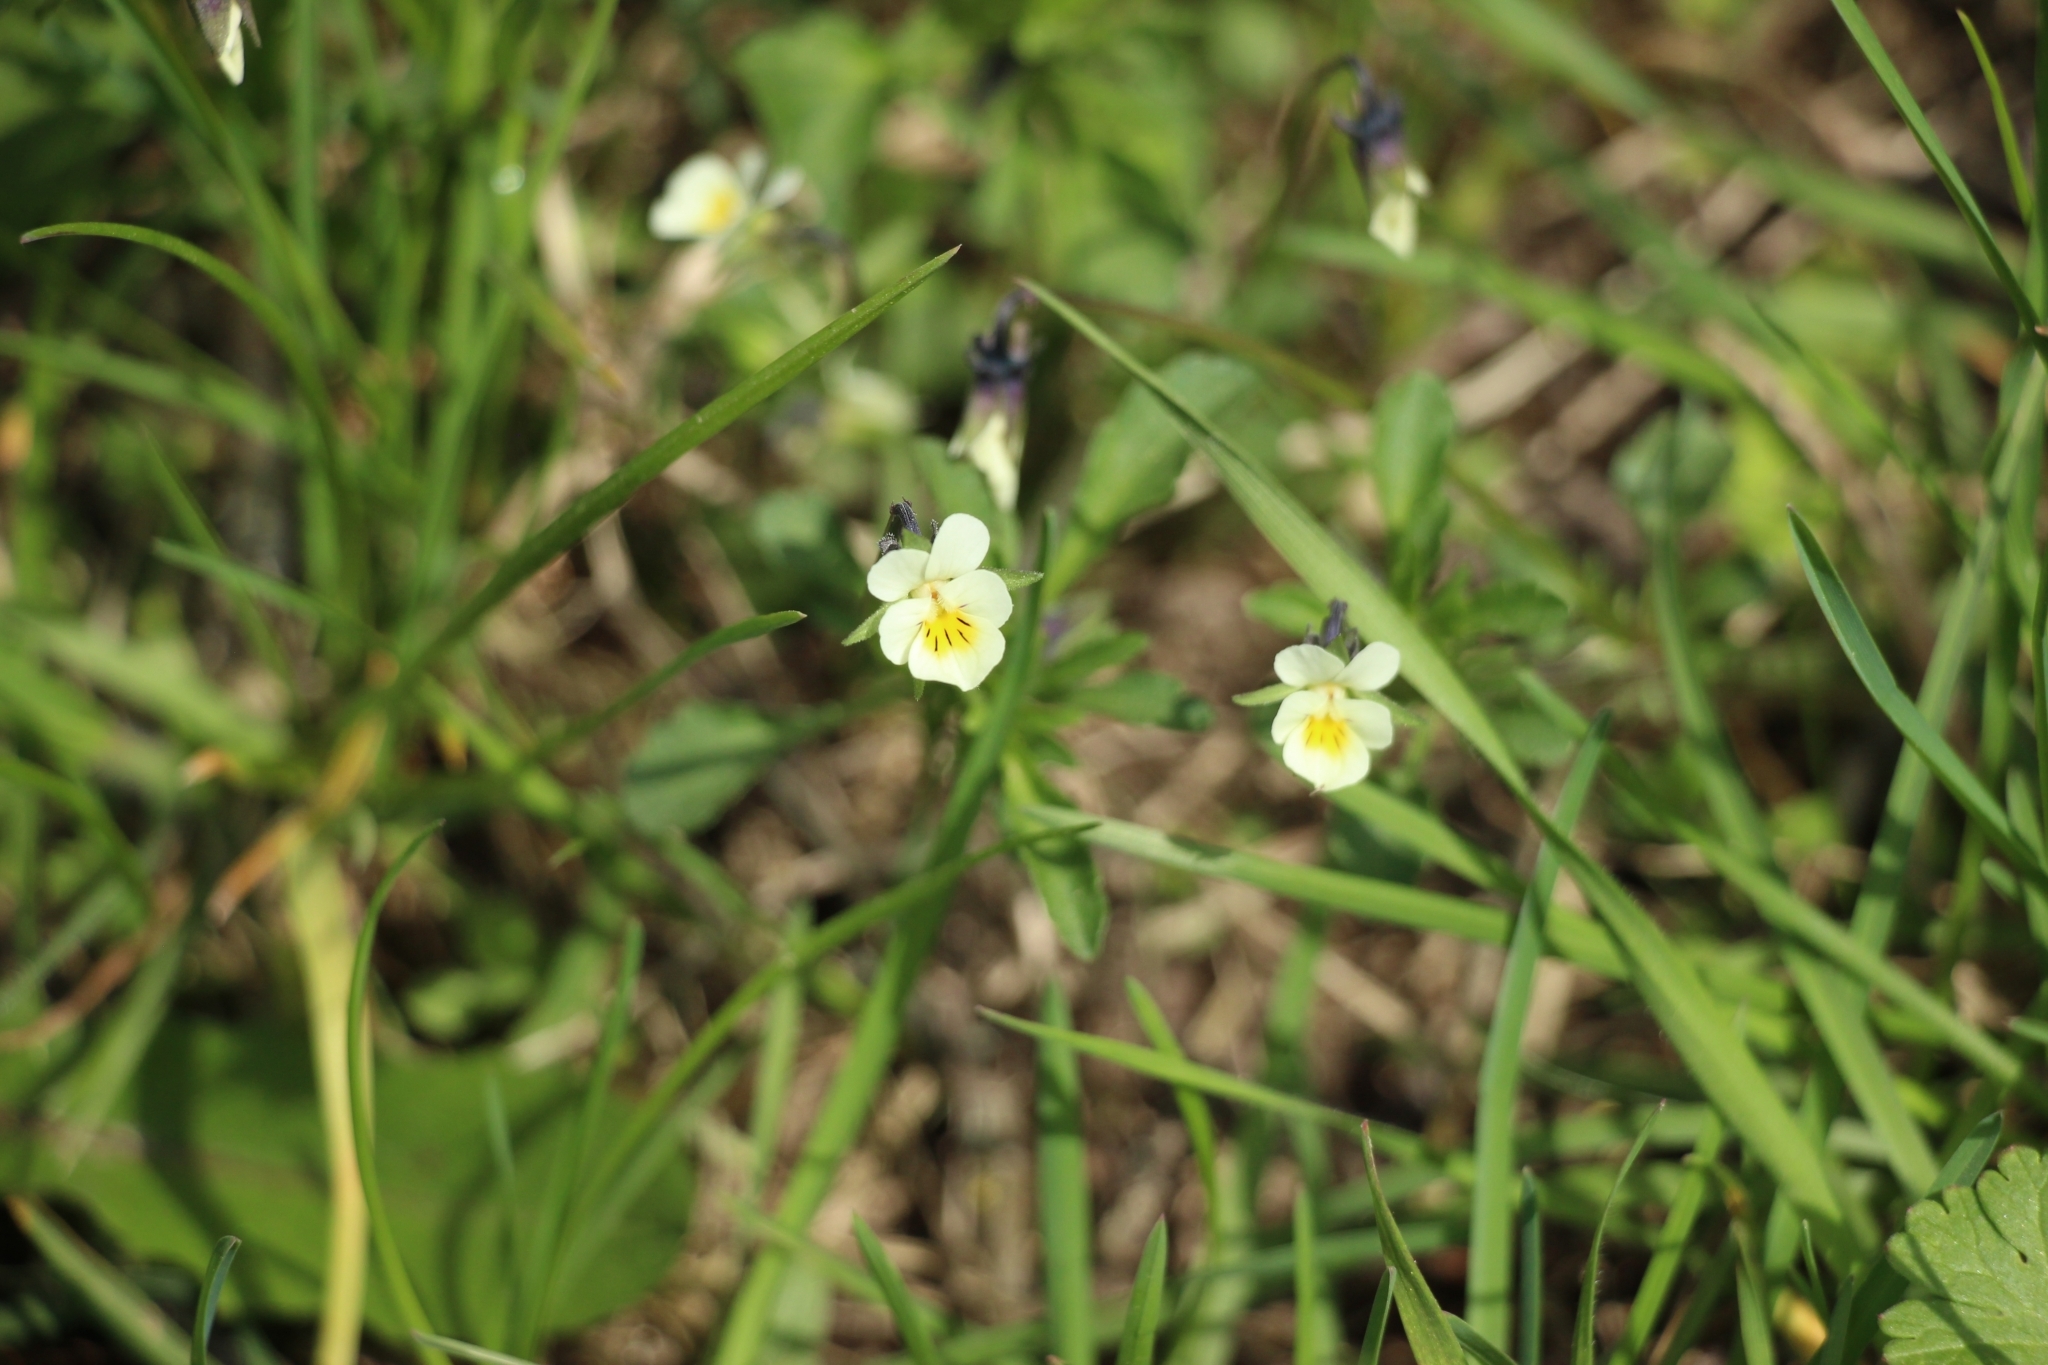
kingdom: Plantae
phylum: Tracheophyta
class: Magnoliopsida
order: Malpighiales
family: Violaceae
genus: Viola
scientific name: Viola arvensis
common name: Field pansy
